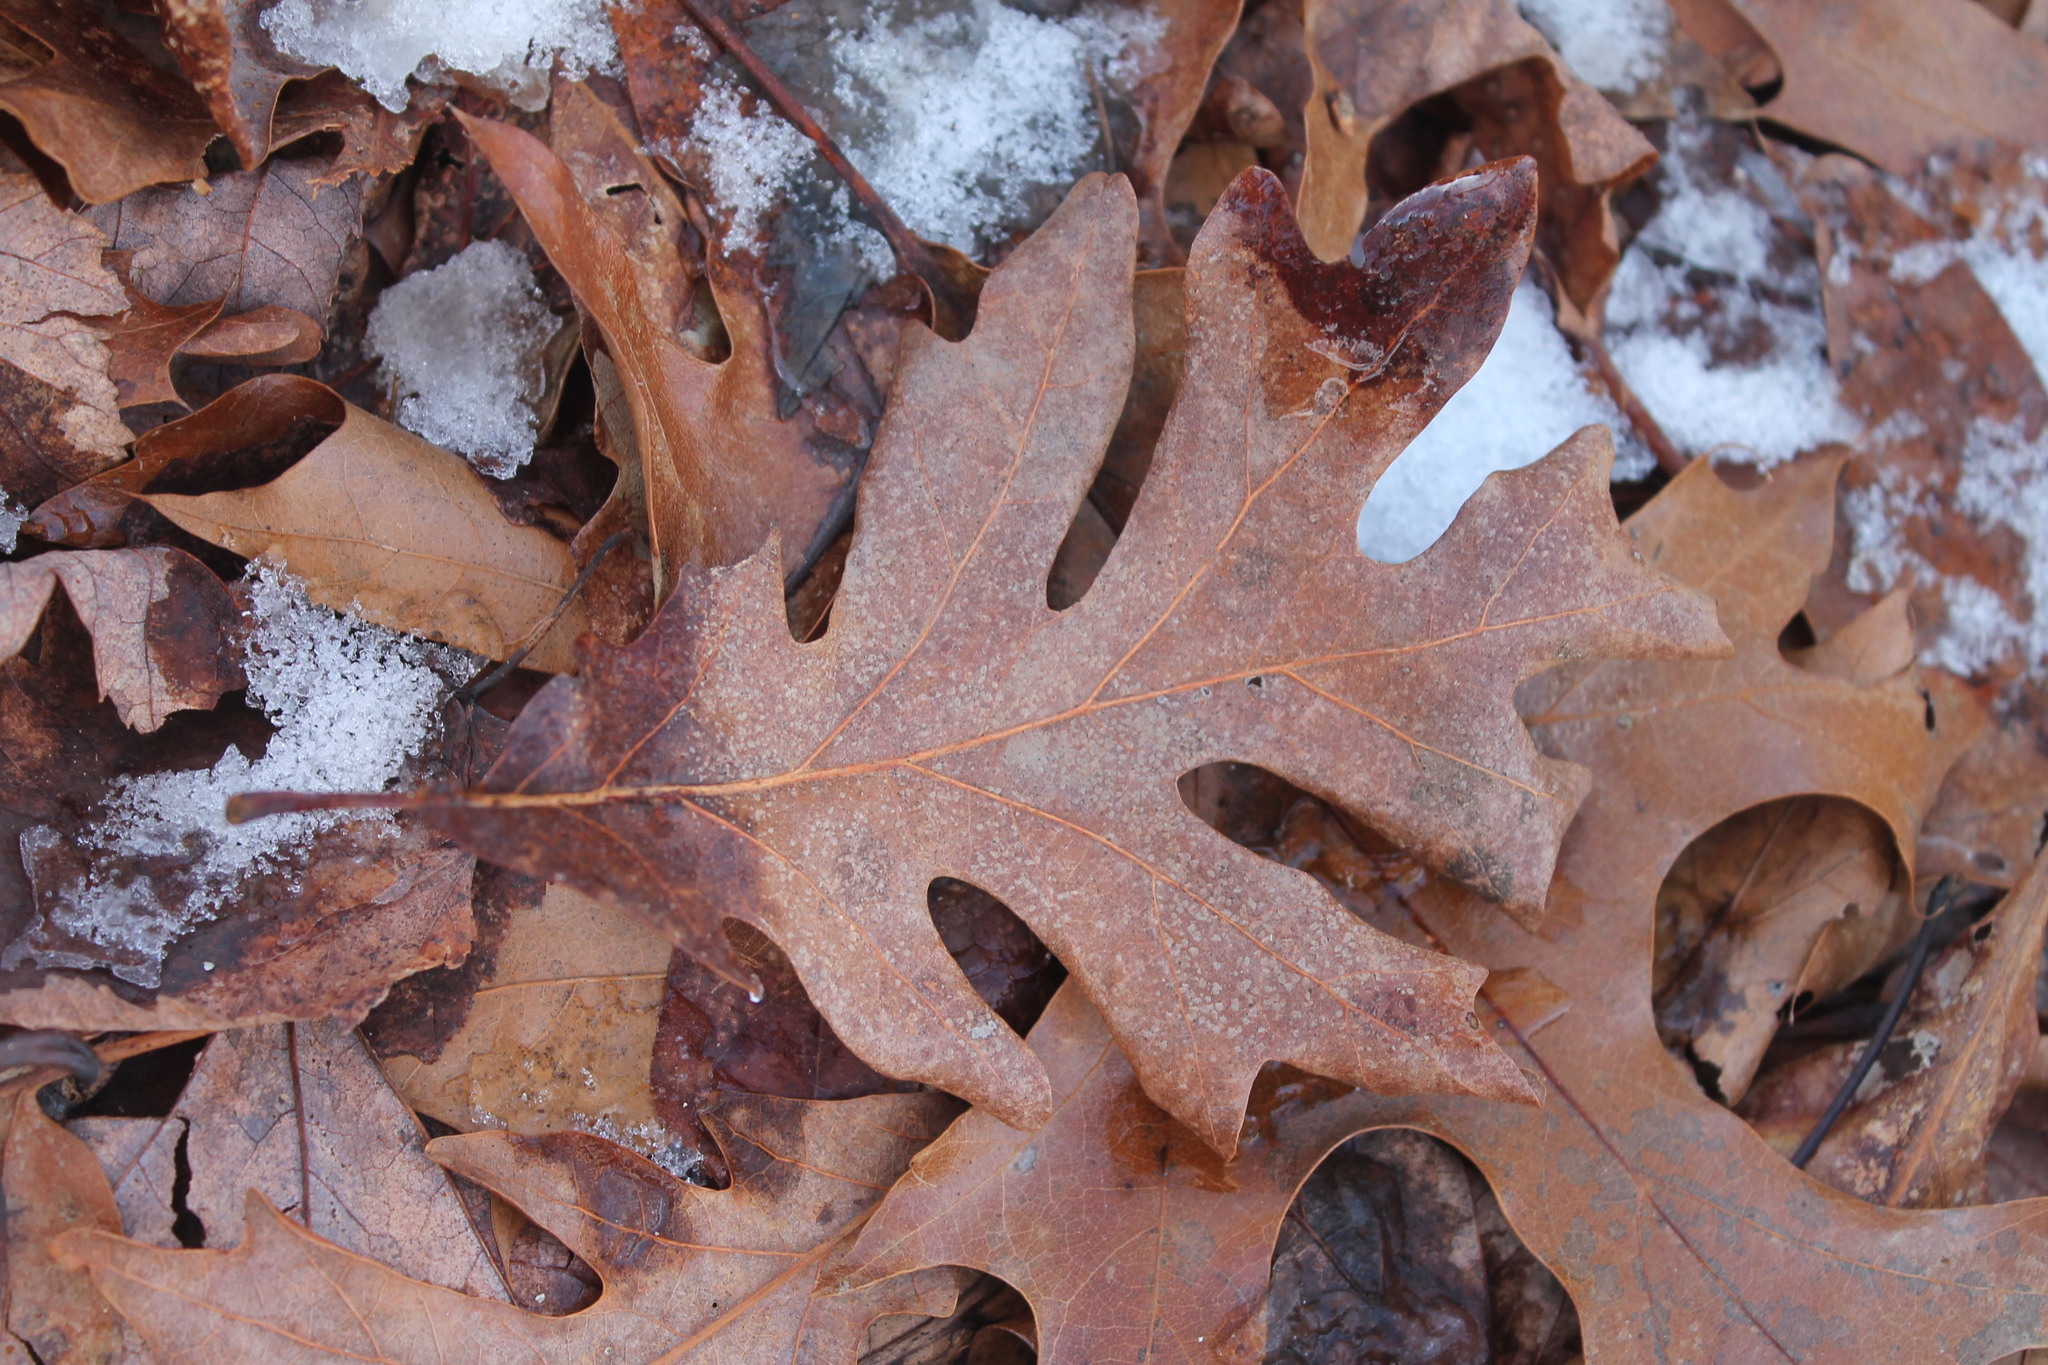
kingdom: Plantae
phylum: Tracheophyta
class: Magnoliopsida
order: Fagales
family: Fagaceae
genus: Quercus
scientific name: Quercus alba
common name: White oak
